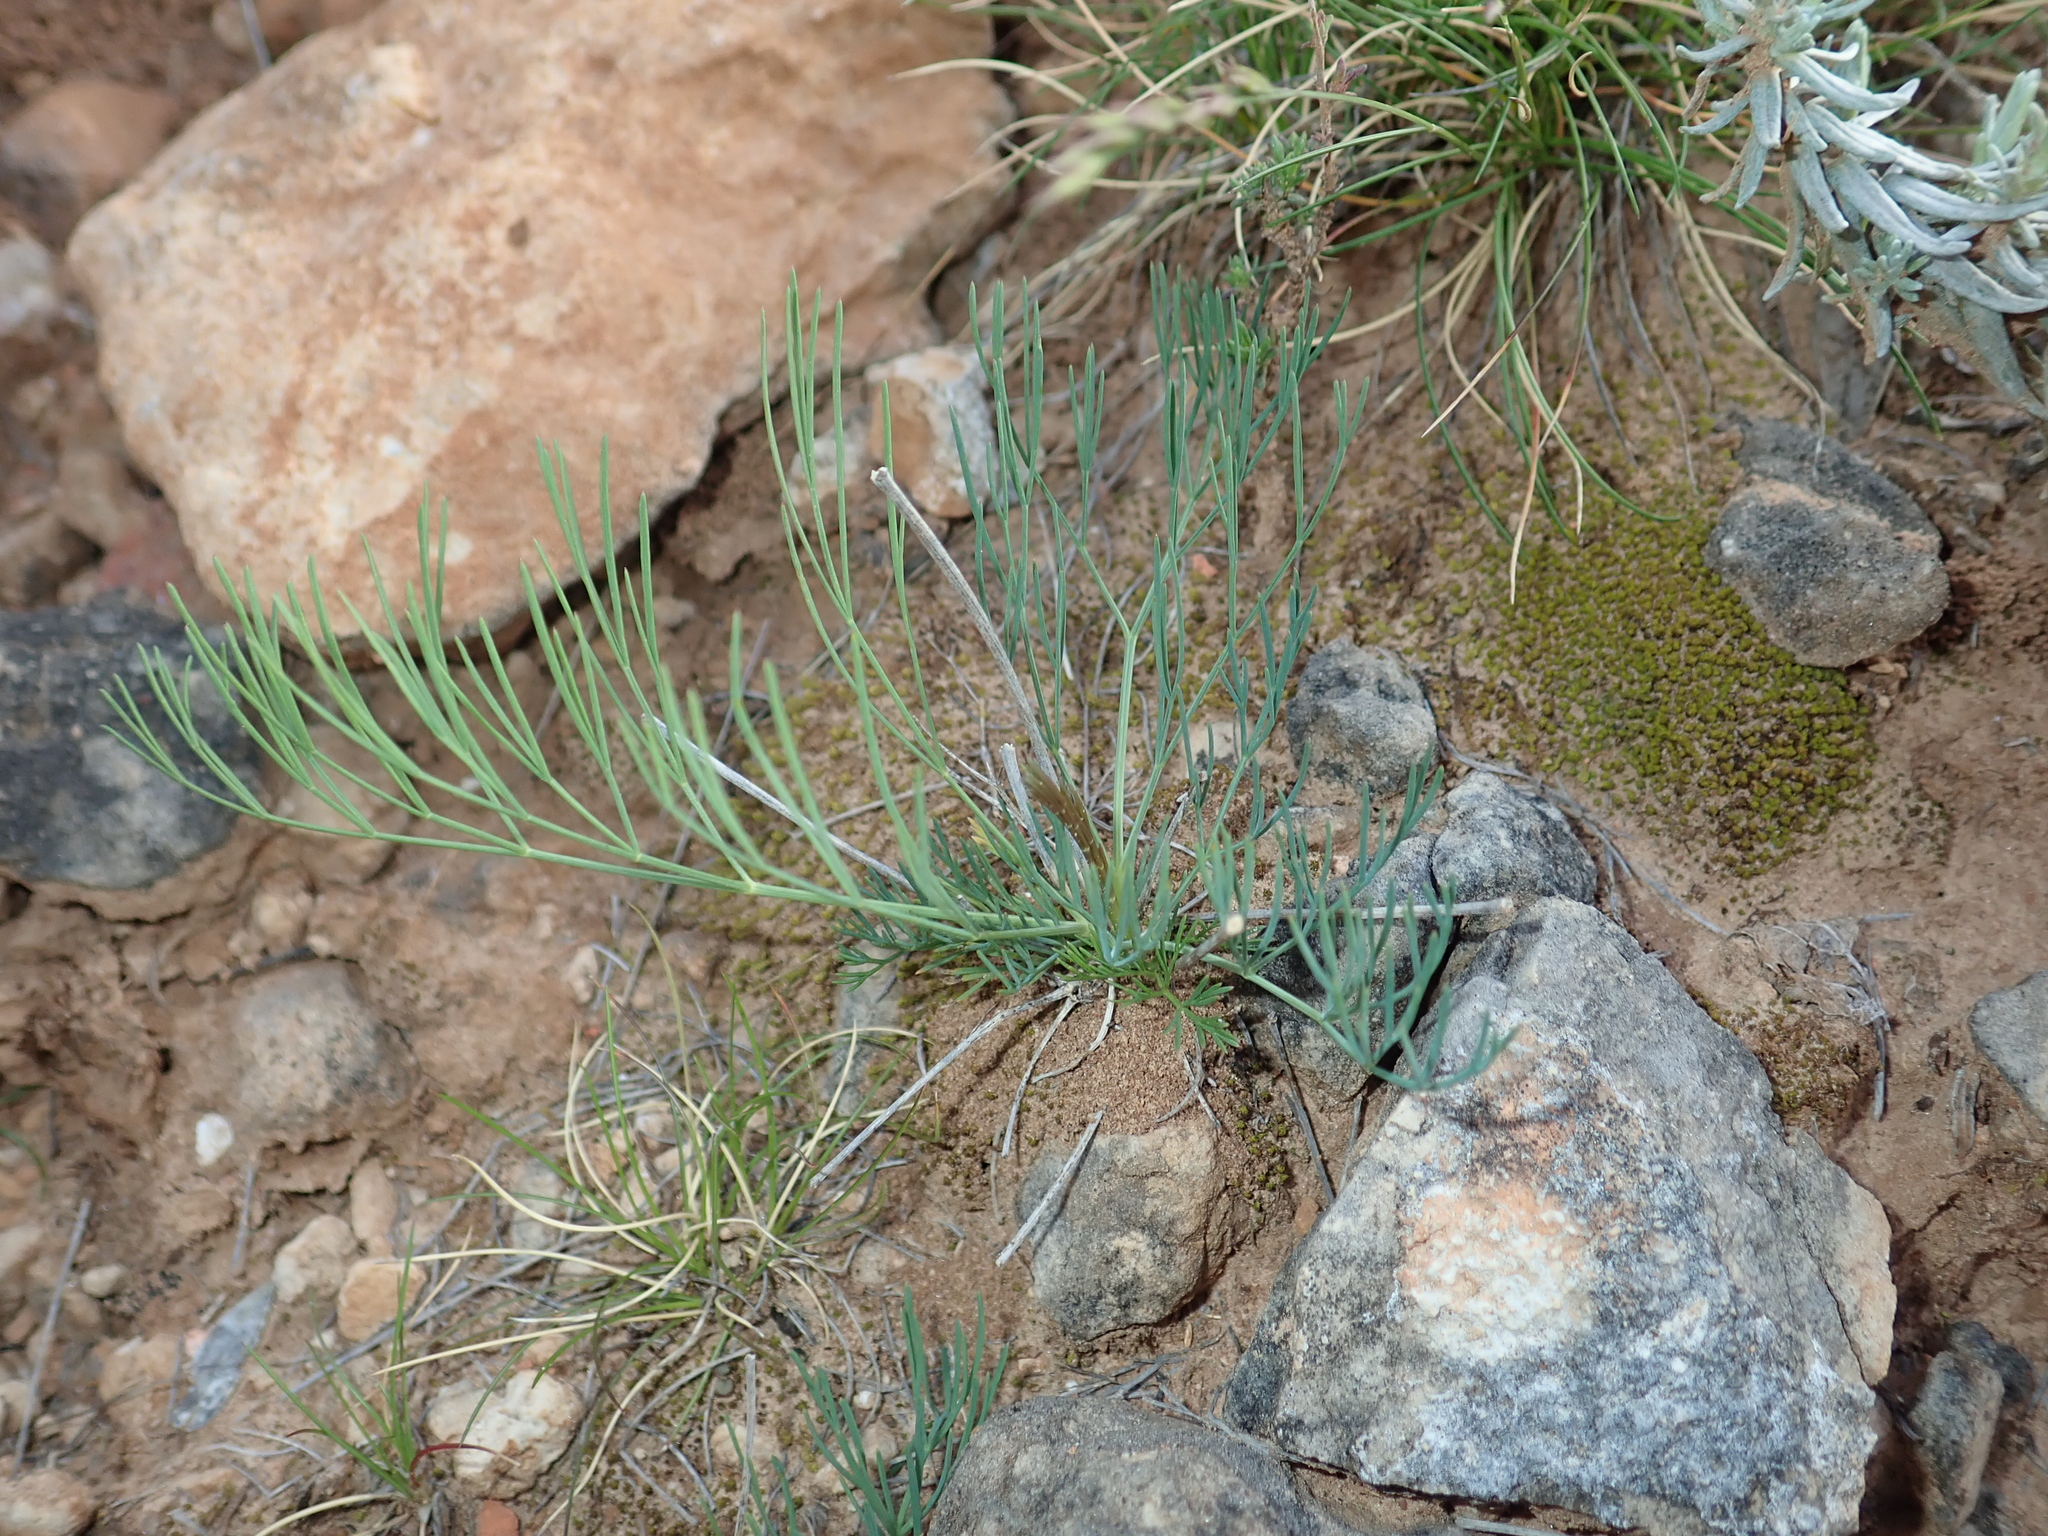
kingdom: Plantae
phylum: Tracheophyta
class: Magnoliopsida
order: Apiales
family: Apiaceae
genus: Seseli
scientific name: Seseli longifolium
